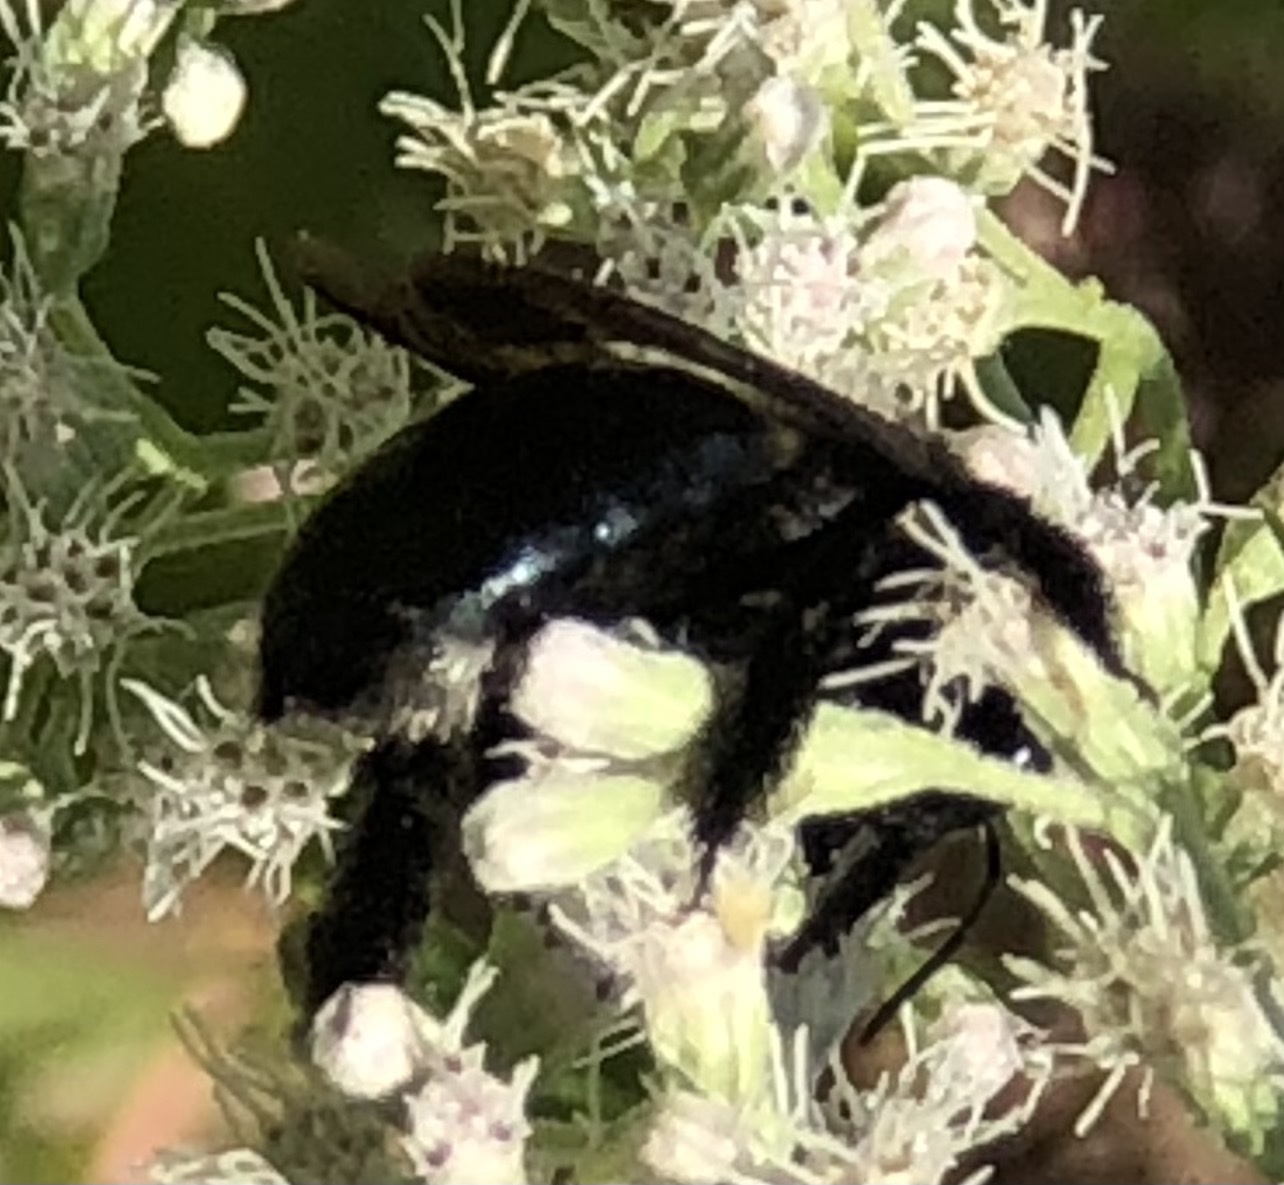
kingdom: Animalia
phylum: Arthropoda
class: Insecta
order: Hymenoptera
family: Apidae
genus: Xylocopa
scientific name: Xylocopa micans
